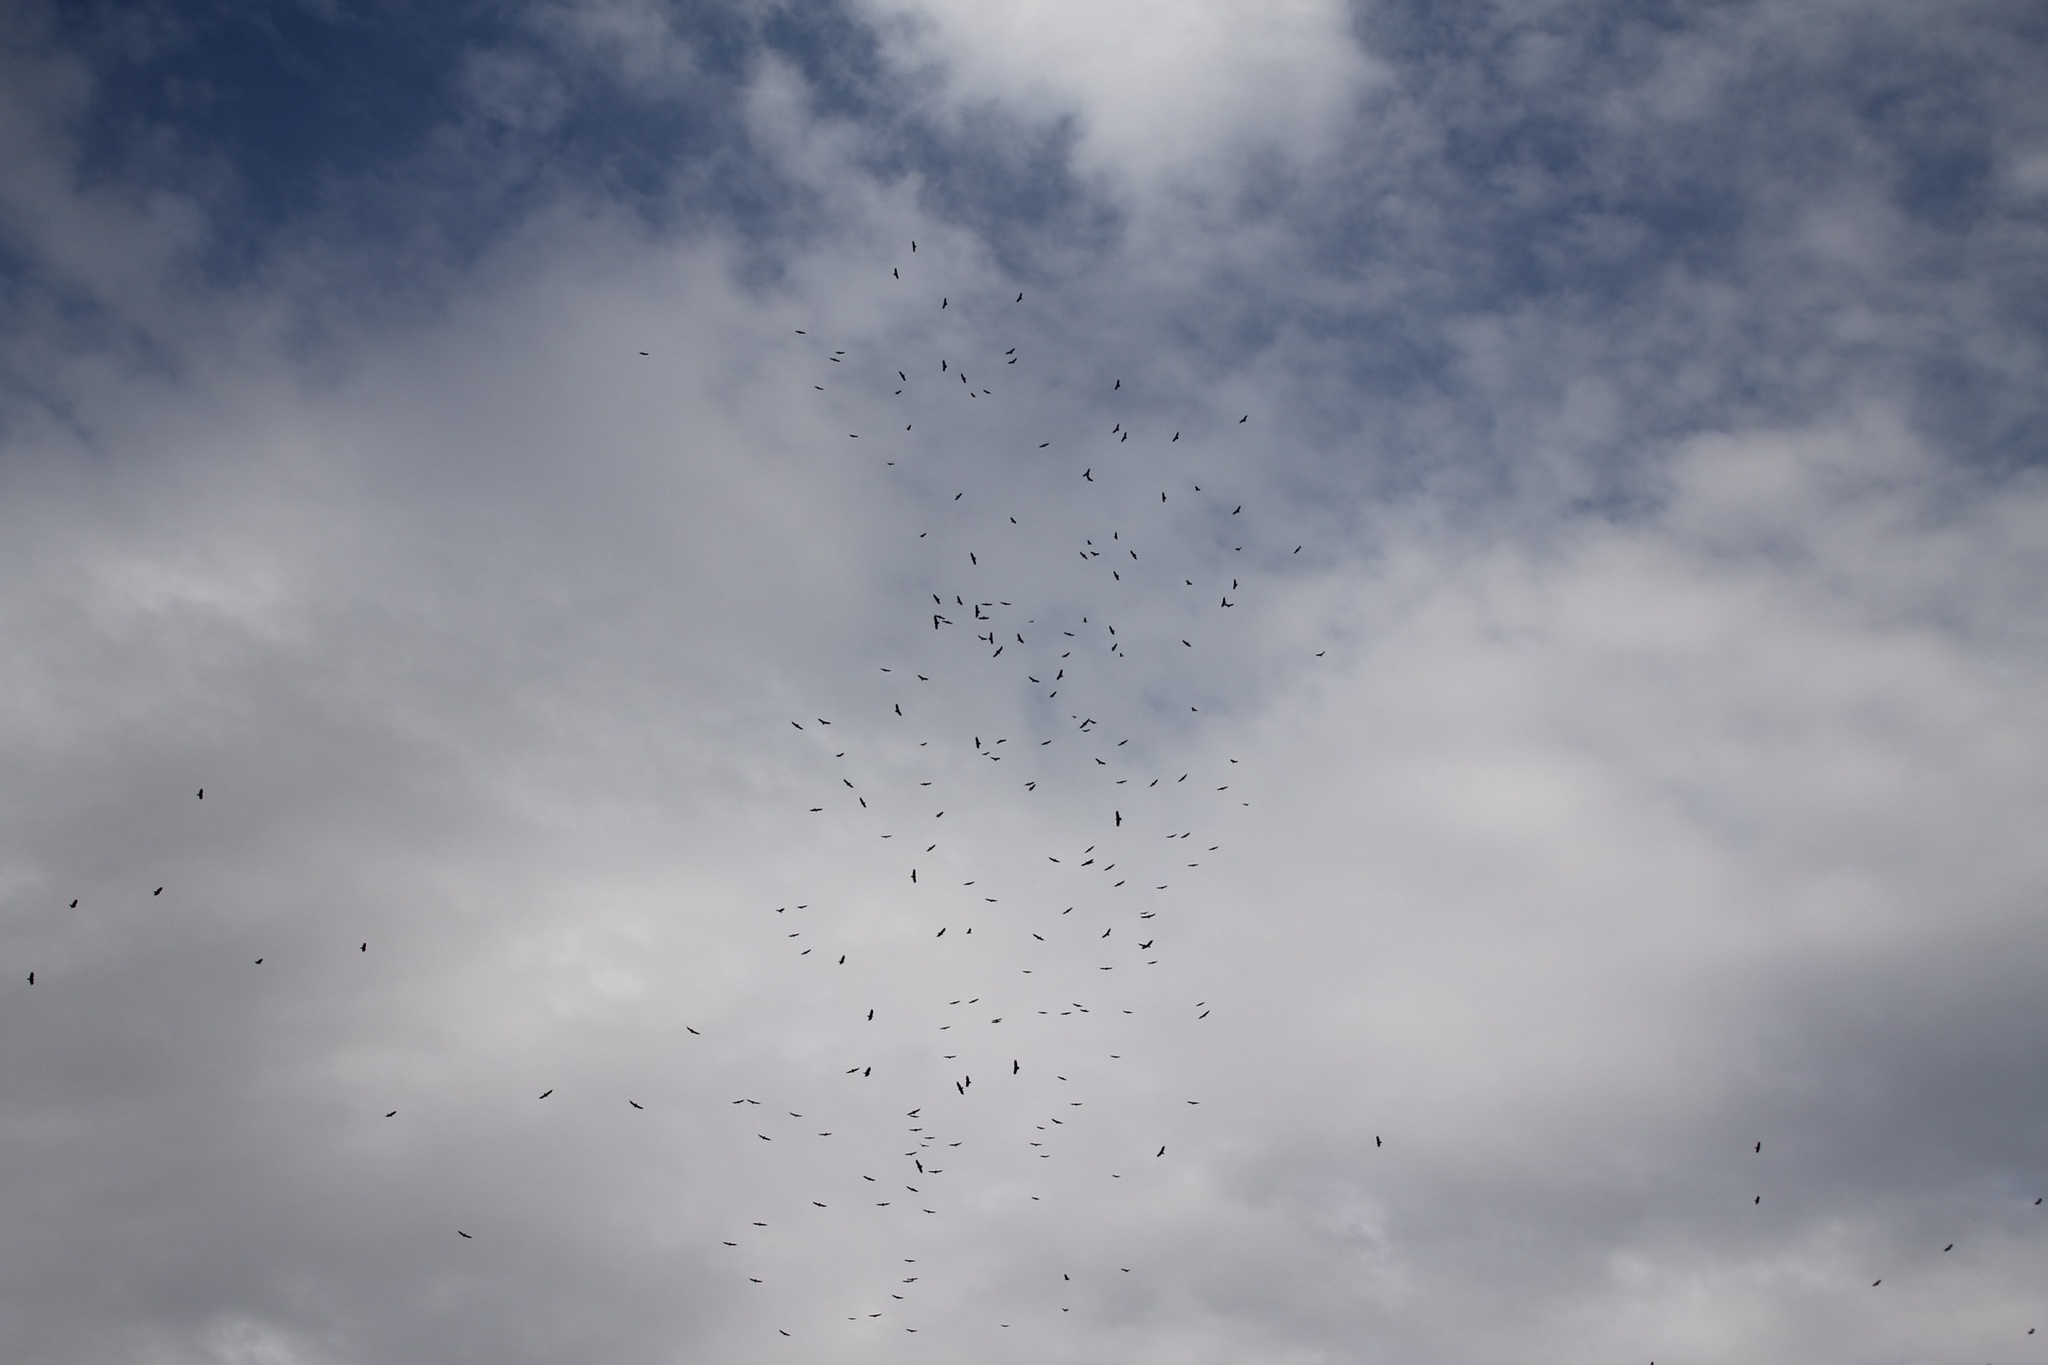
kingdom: Animalia
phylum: Chordata
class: Aves
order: Accipitriformes
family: Cathartidae
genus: Cathartes
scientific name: Cathartes aura
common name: Turkey vulture
